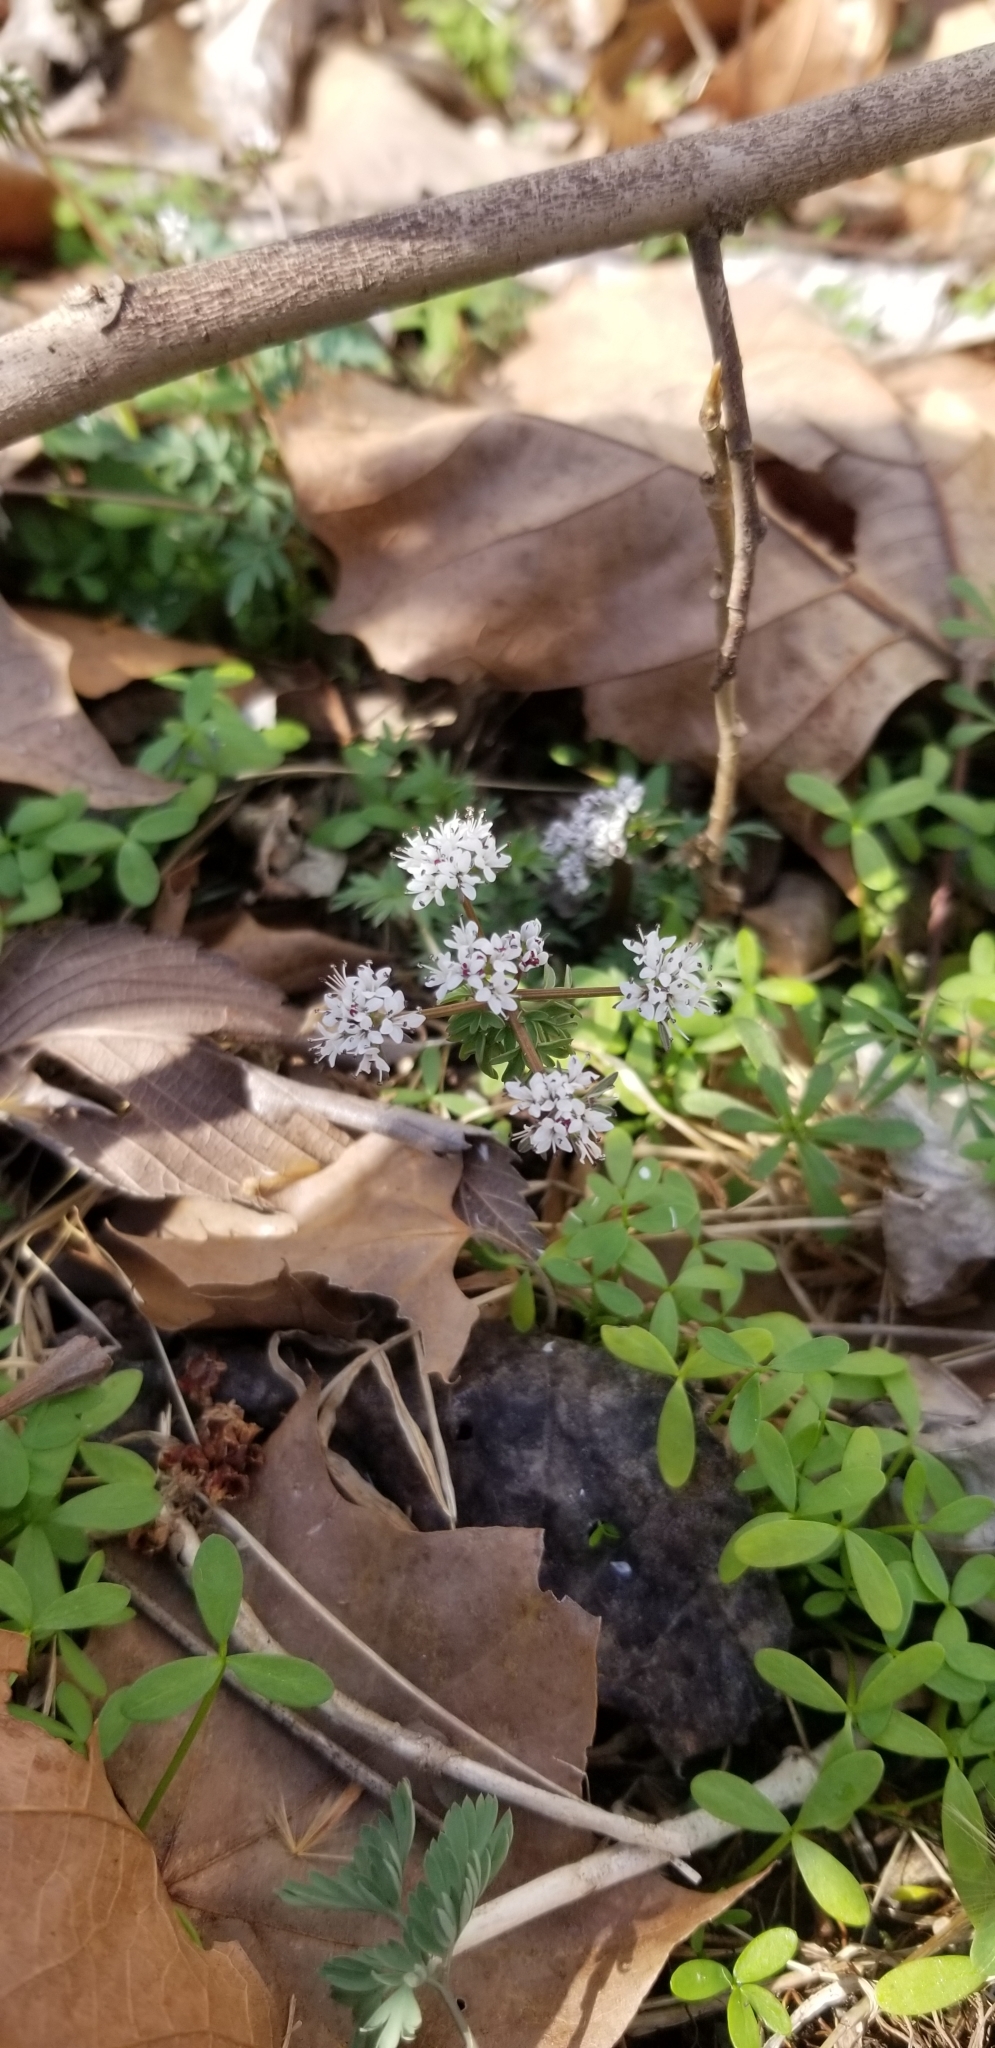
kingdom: Plantae
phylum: Tracheophyta
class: Magnoliopsida
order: Brassicales
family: Limnanthaceae
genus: Floerkea
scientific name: Floerkea proserpinacoides
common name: False mermaid
